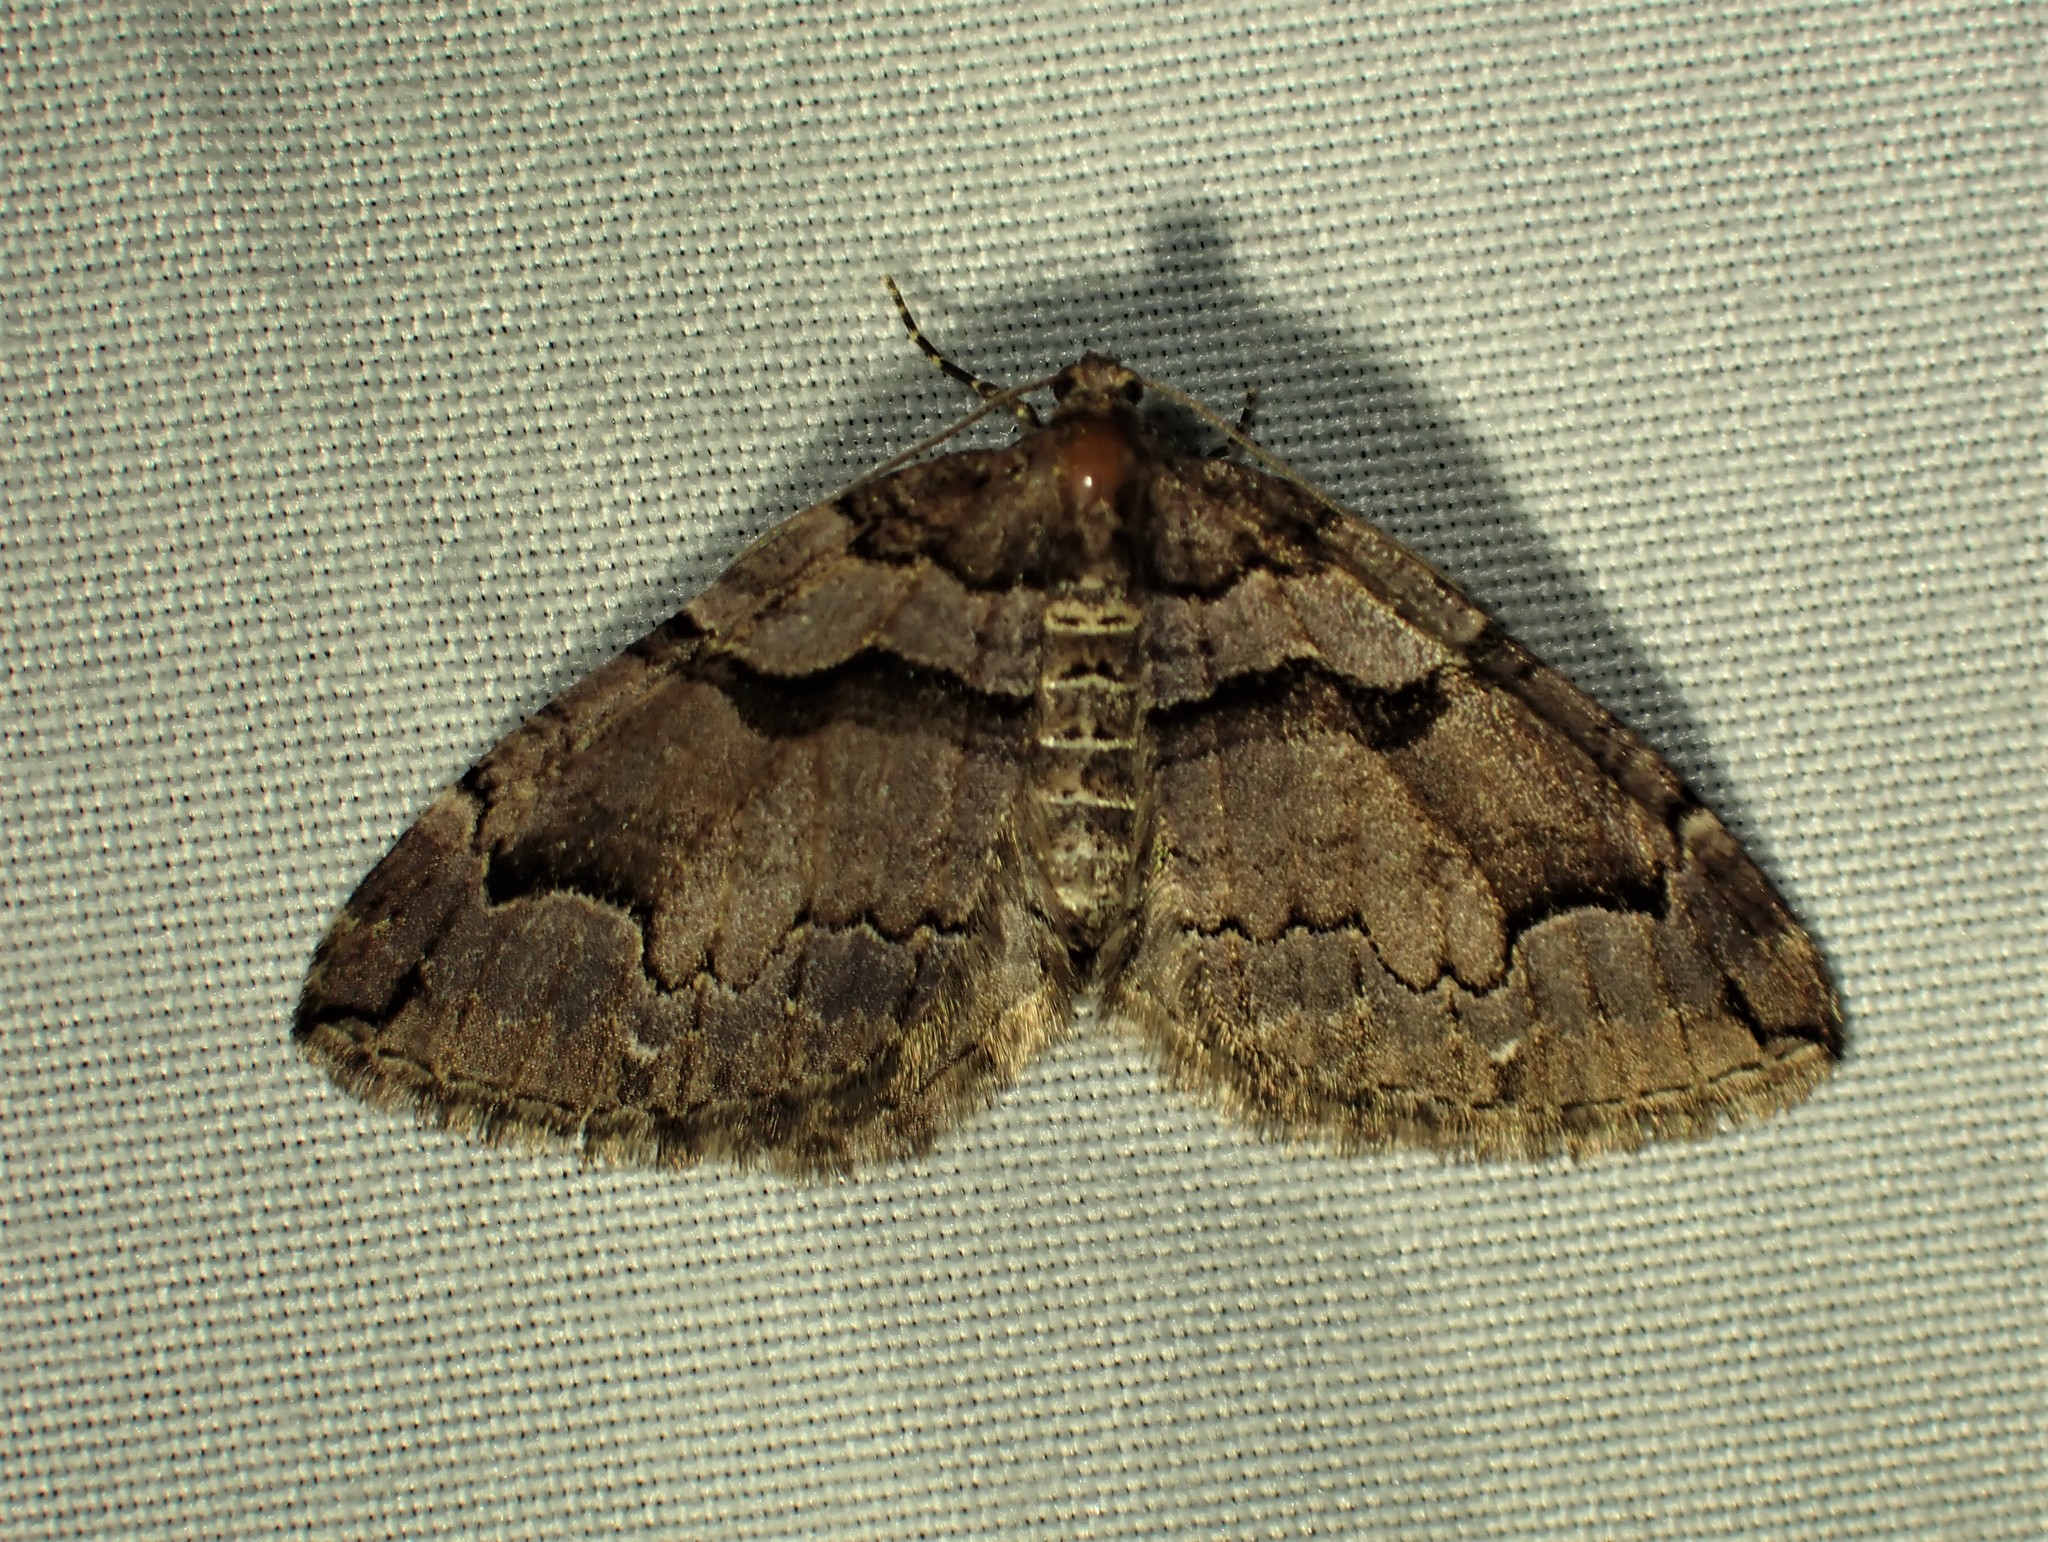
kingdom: Animalia
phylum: Arthropoda
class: Insecta
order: Lepidoptera
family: Geometridae
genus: Anticlea
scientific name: Anticlea vasiliata
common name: Variable carpet
